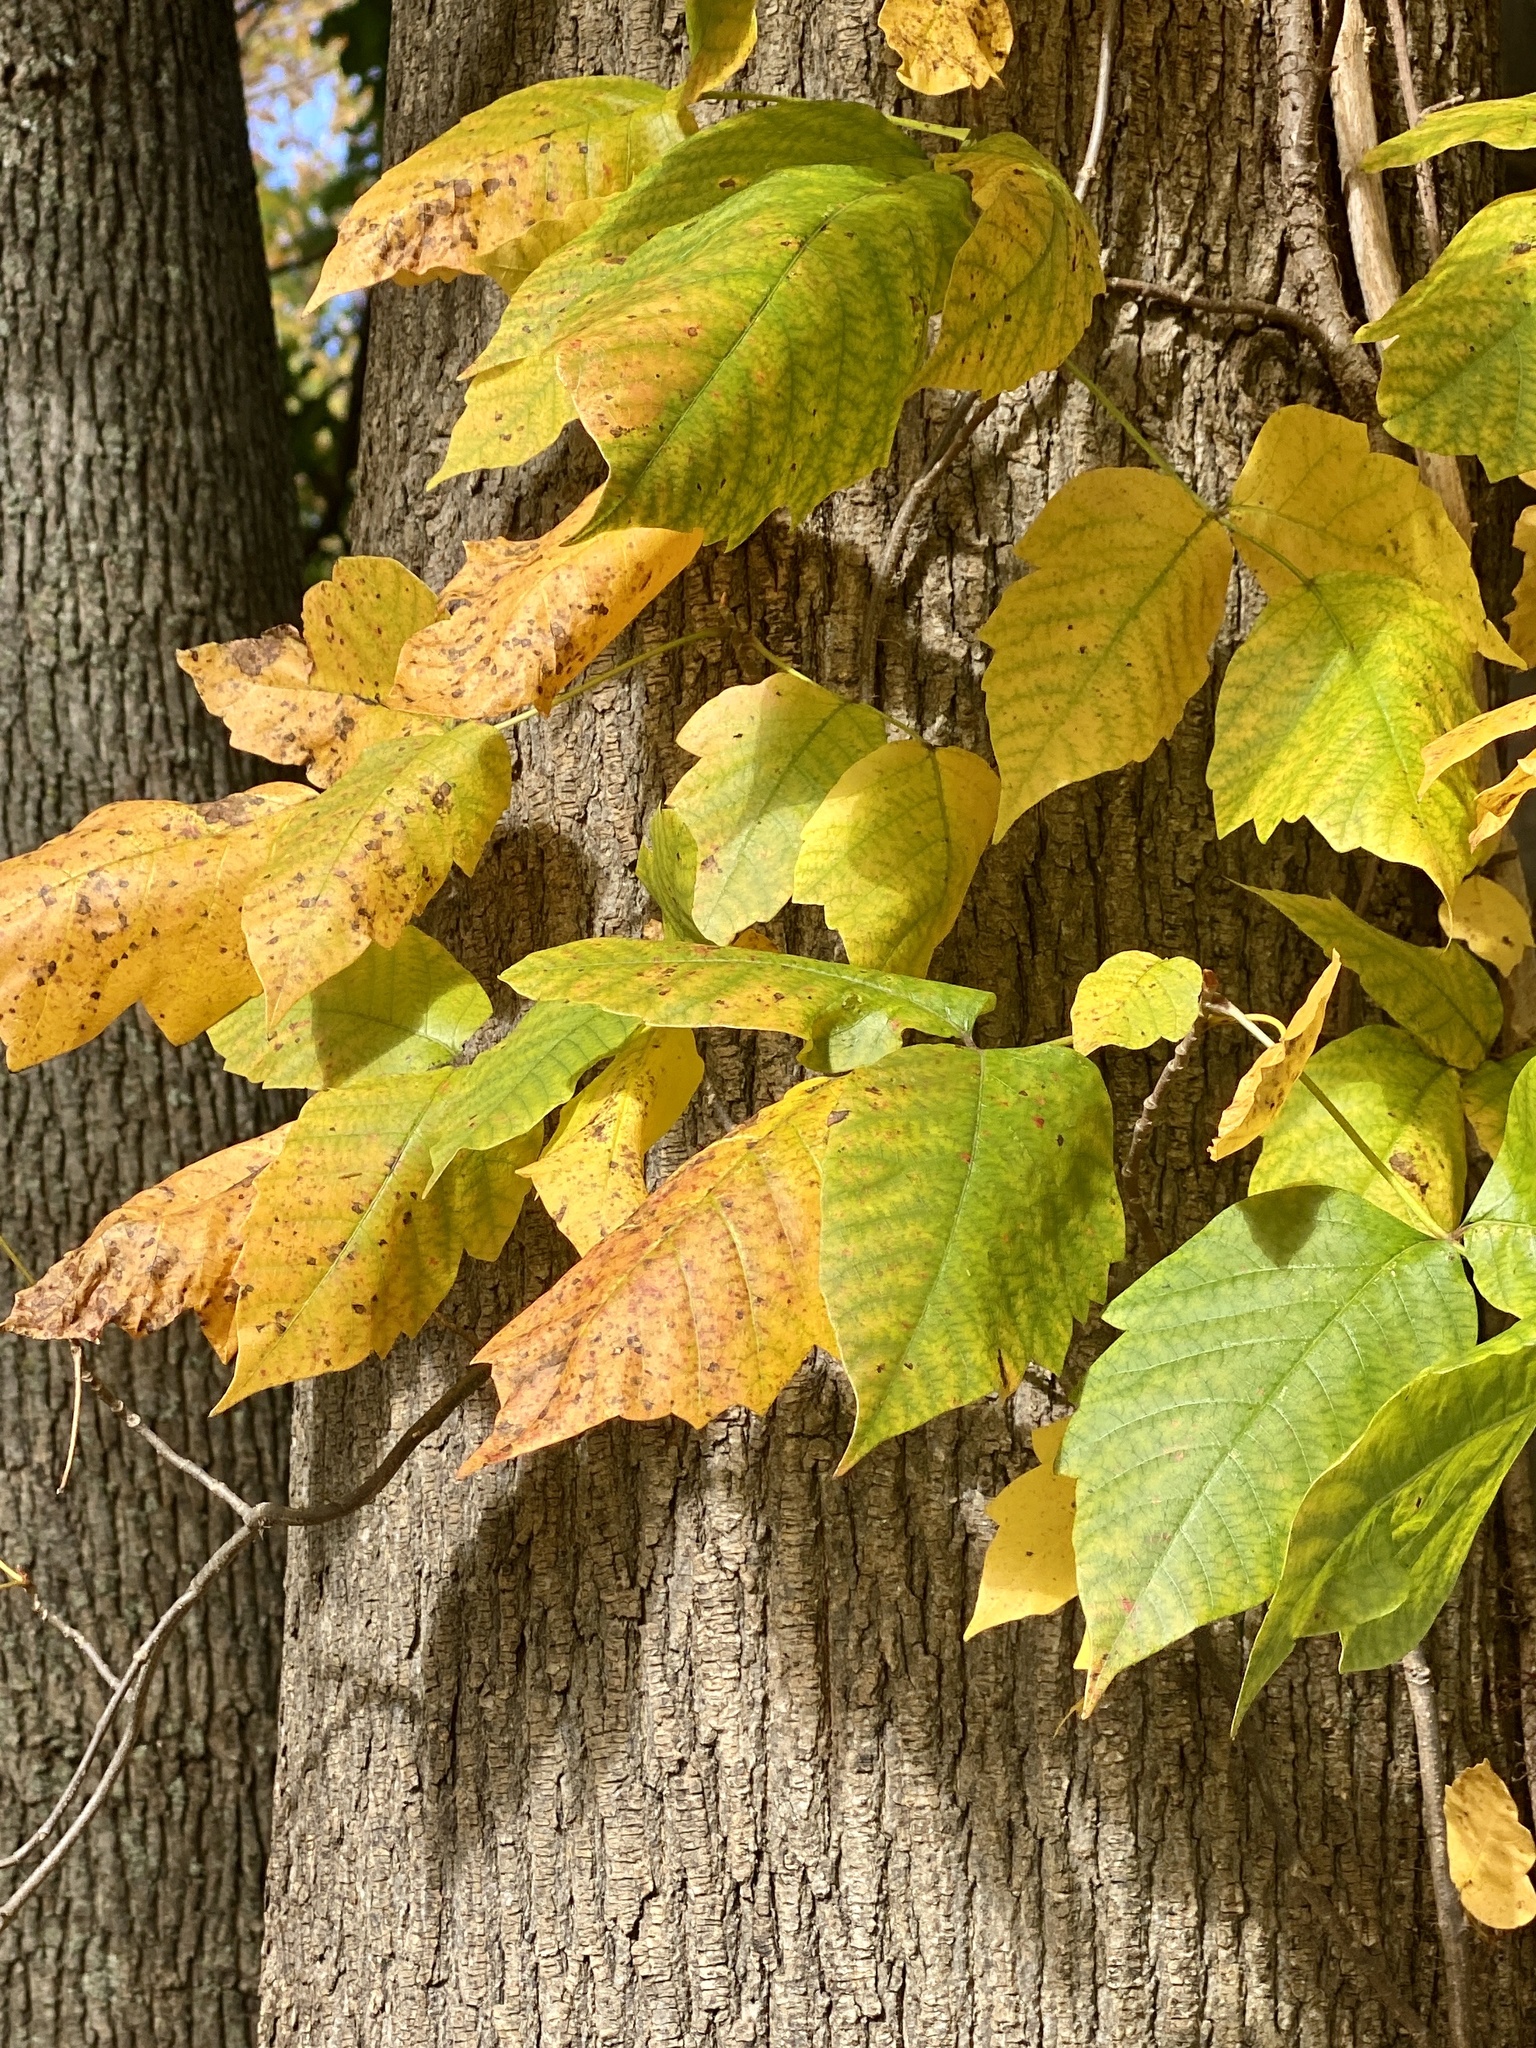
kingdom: Plantae
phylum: Tracheophyta
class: Magnoliopsida
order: Sapindales
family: Anacardiaceae
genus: Toxicodendron
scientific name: Toxicodendron radicans
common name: Poison ivy
